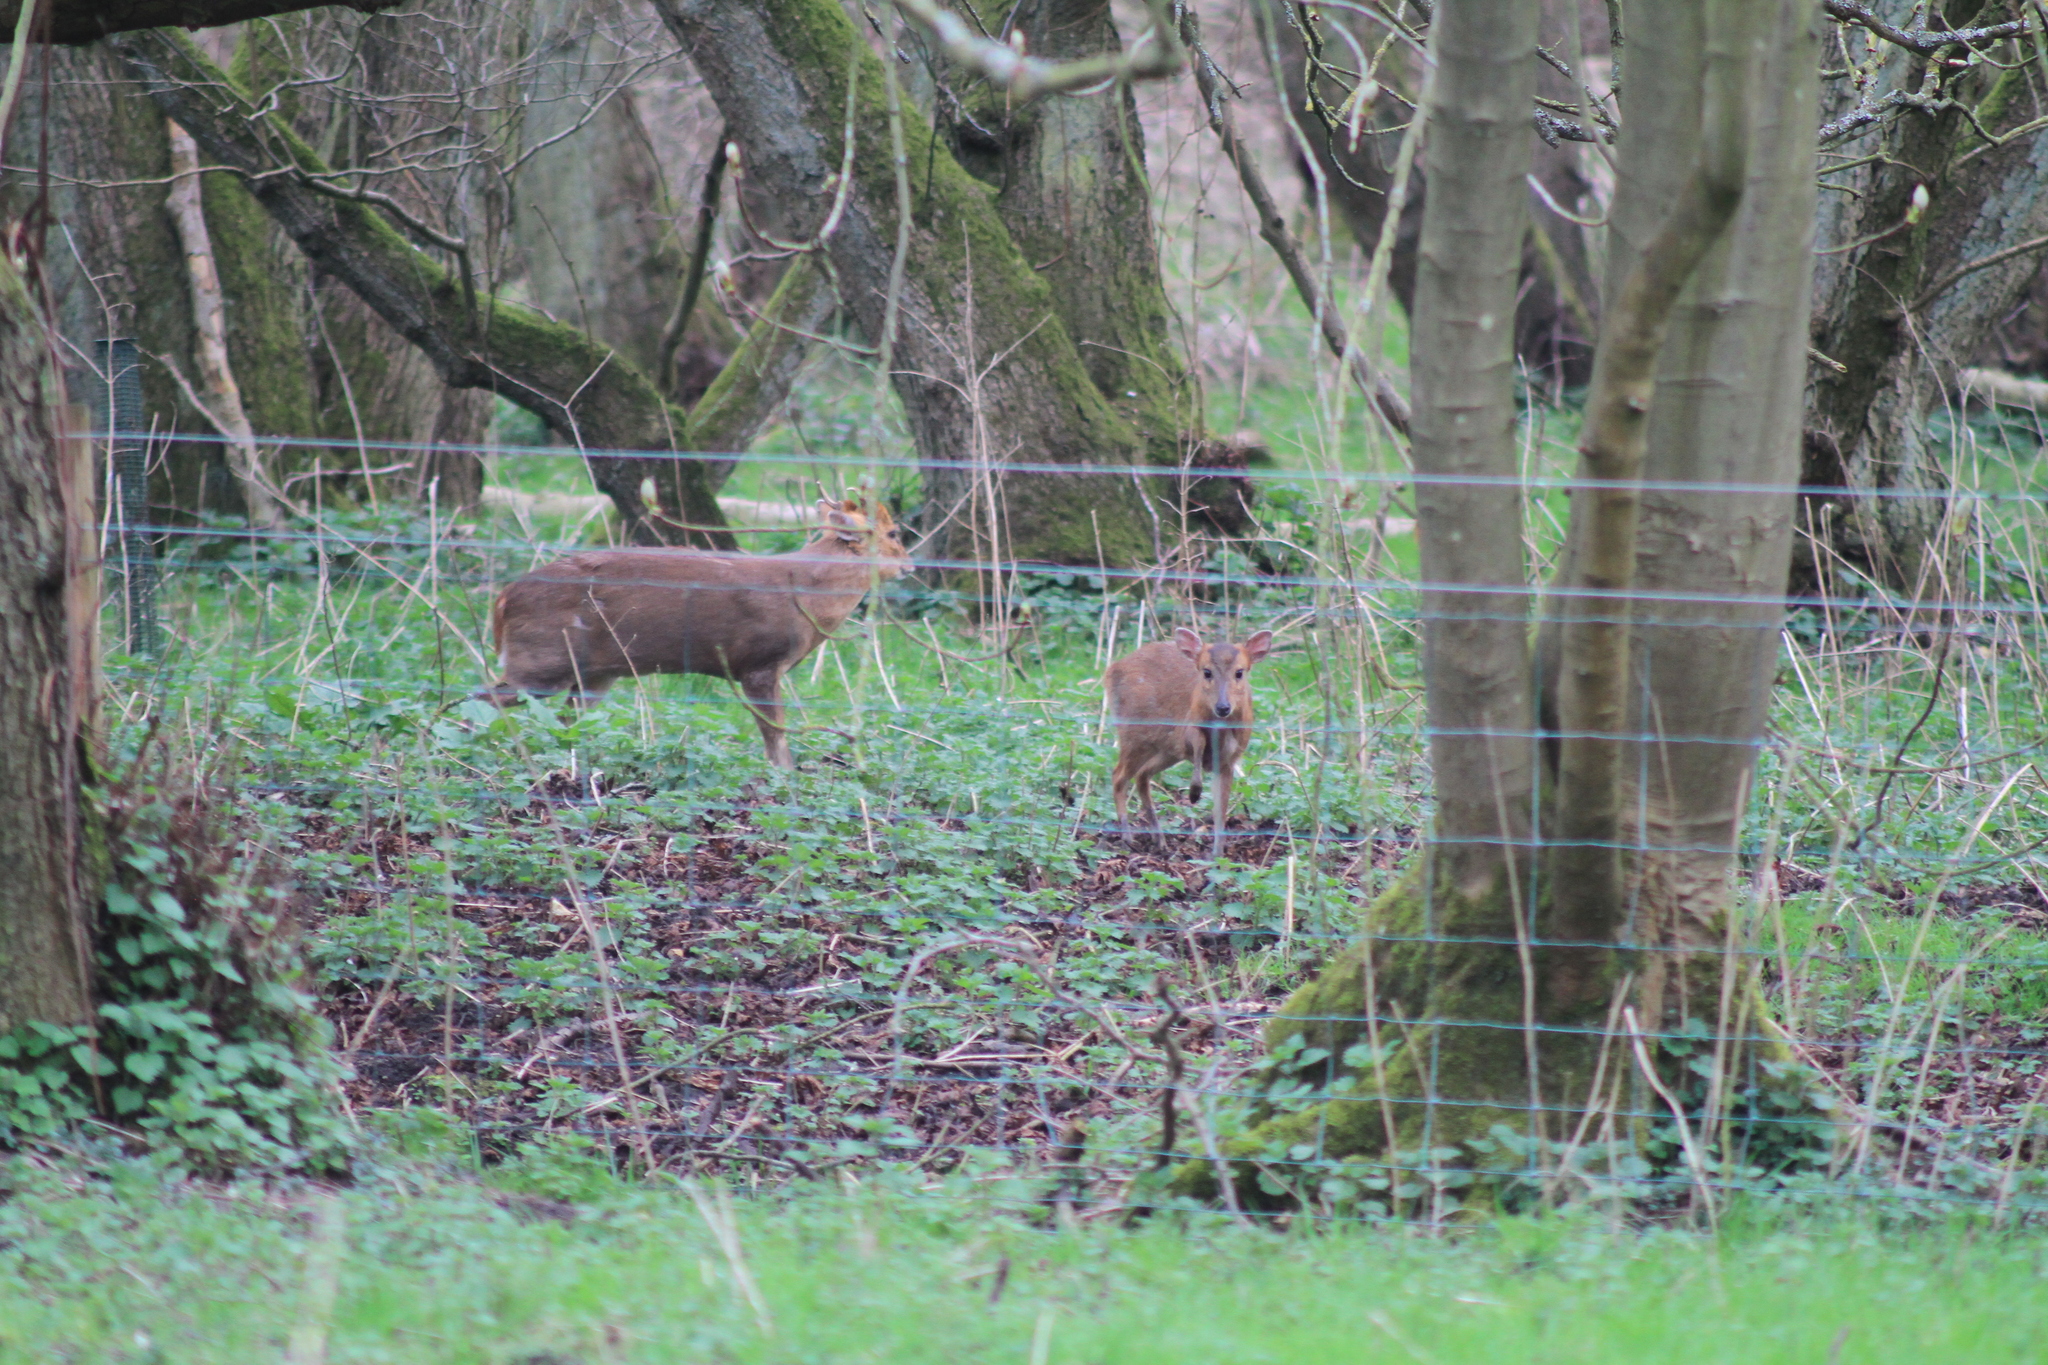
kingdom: Animalia
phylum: Chordata
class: Mammalia
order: Artiodactyla
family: Cervidae
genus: Muntiacus
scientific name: Muntiacus reevesi
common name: Reeves' muntjac
